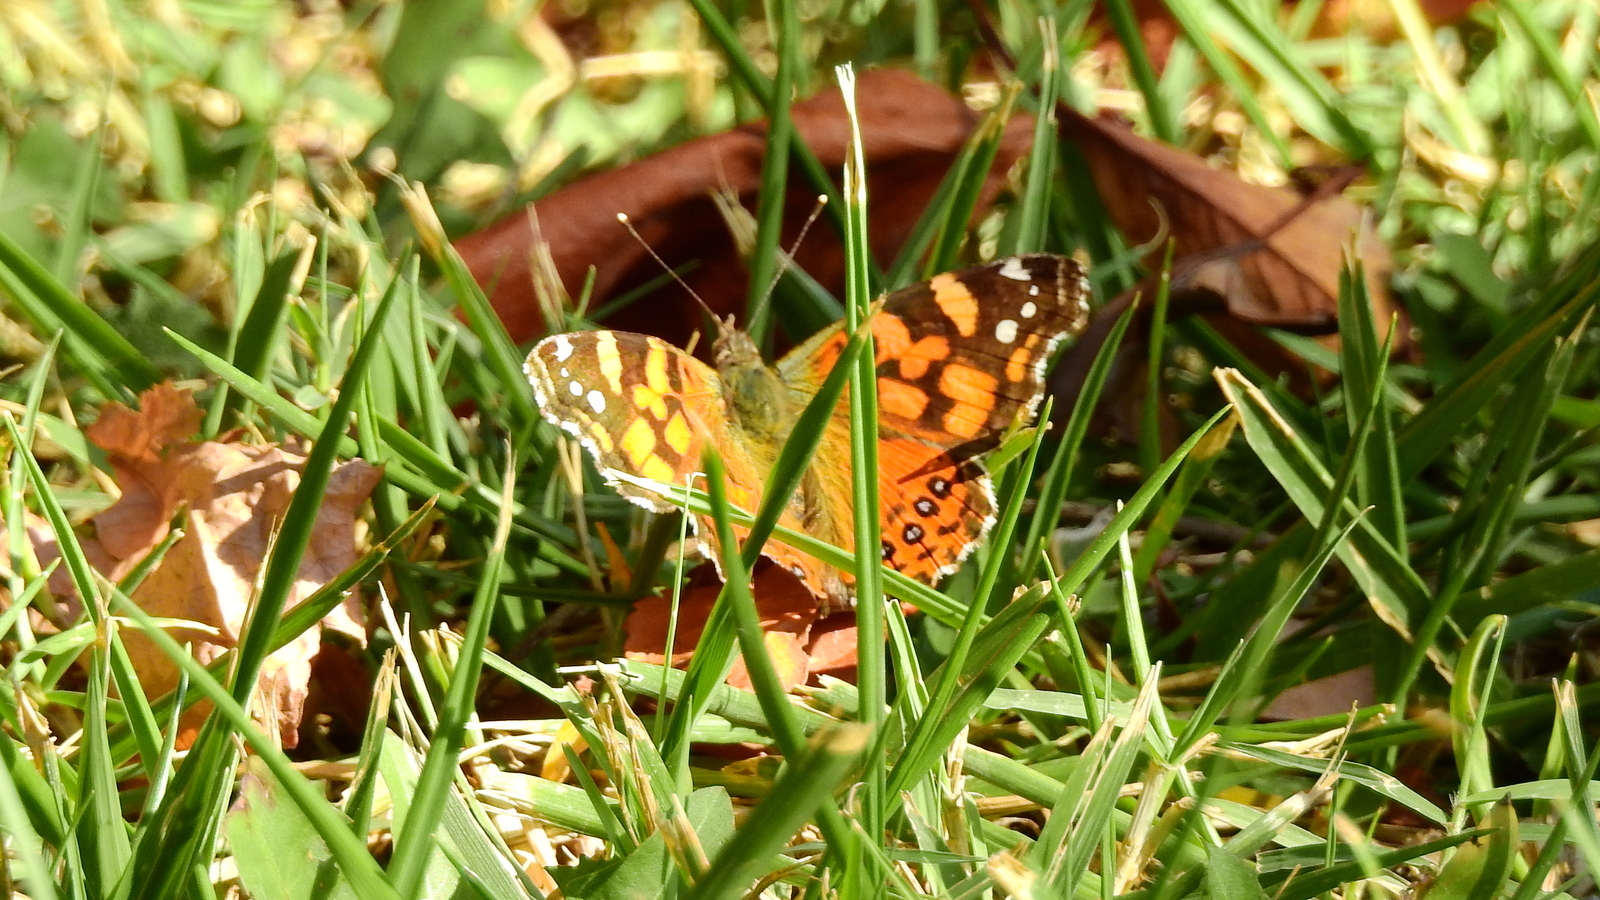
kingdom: Animalia
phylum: Arthropoda
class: Insecta
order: Lepidoptera
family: Nymphalidae
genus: Vanessa
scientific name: Vanessa carye
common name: Subtropical lady
